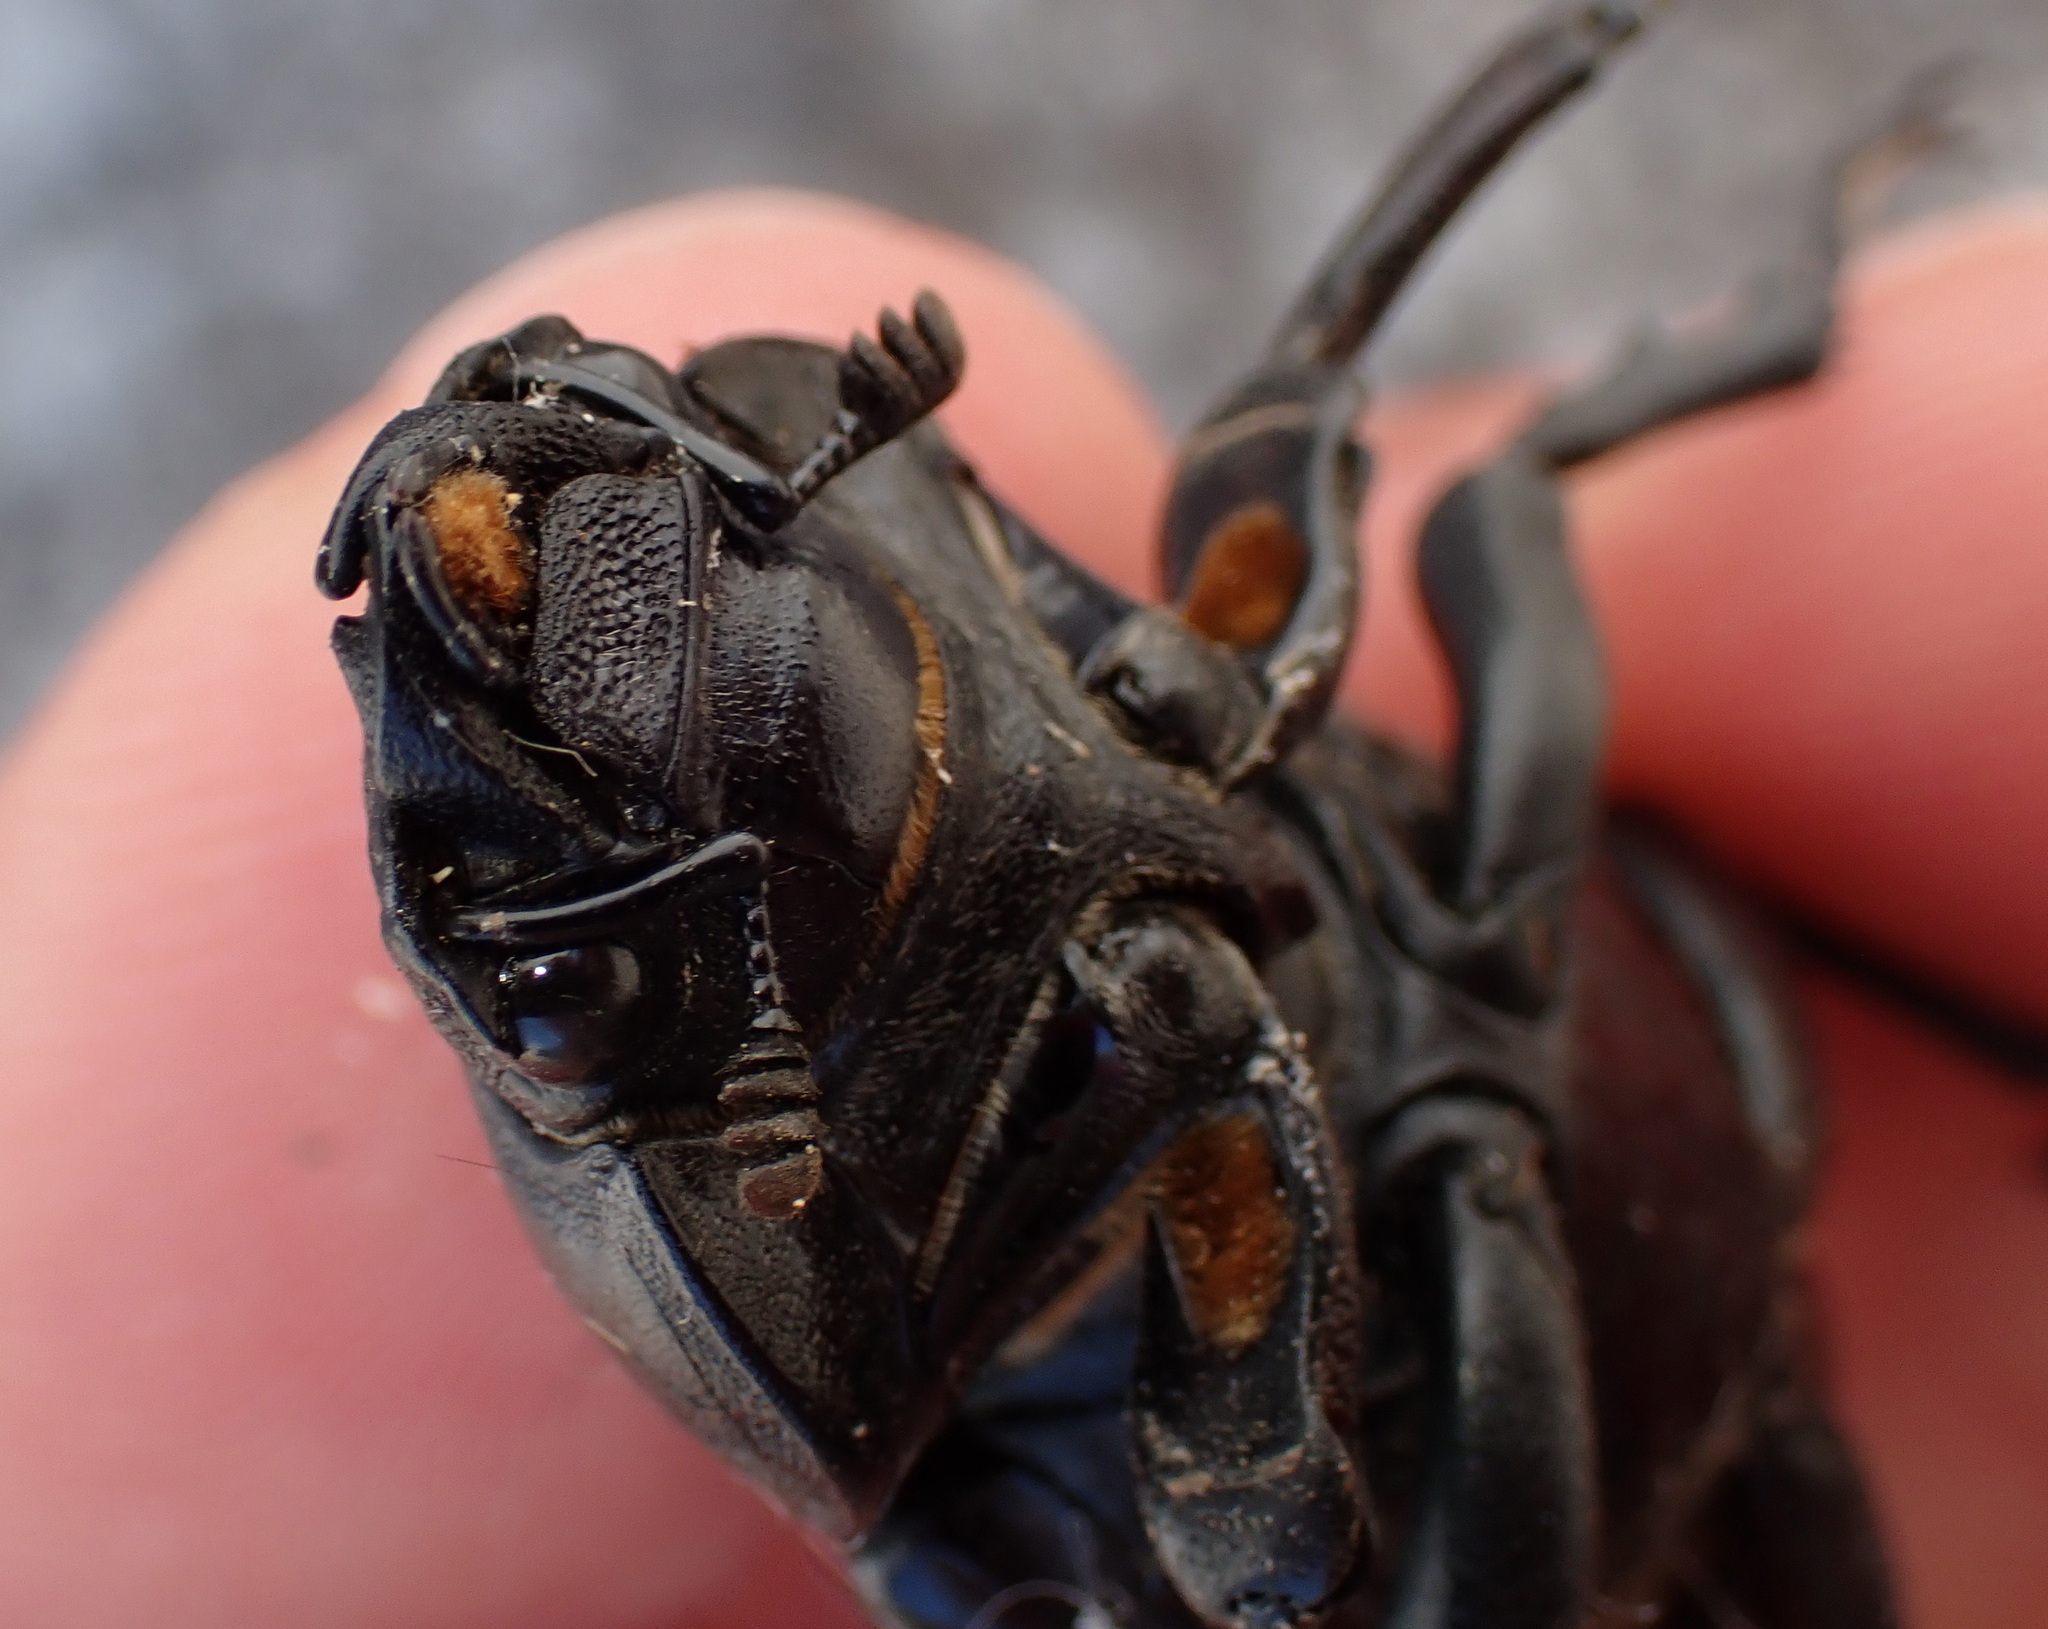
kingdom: Animalia
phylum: Arthropoda
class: Insecta
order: Coleoptera
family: Lucanidae
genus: Lucanus
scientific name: Lucanus cervus
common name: Stag beetle
